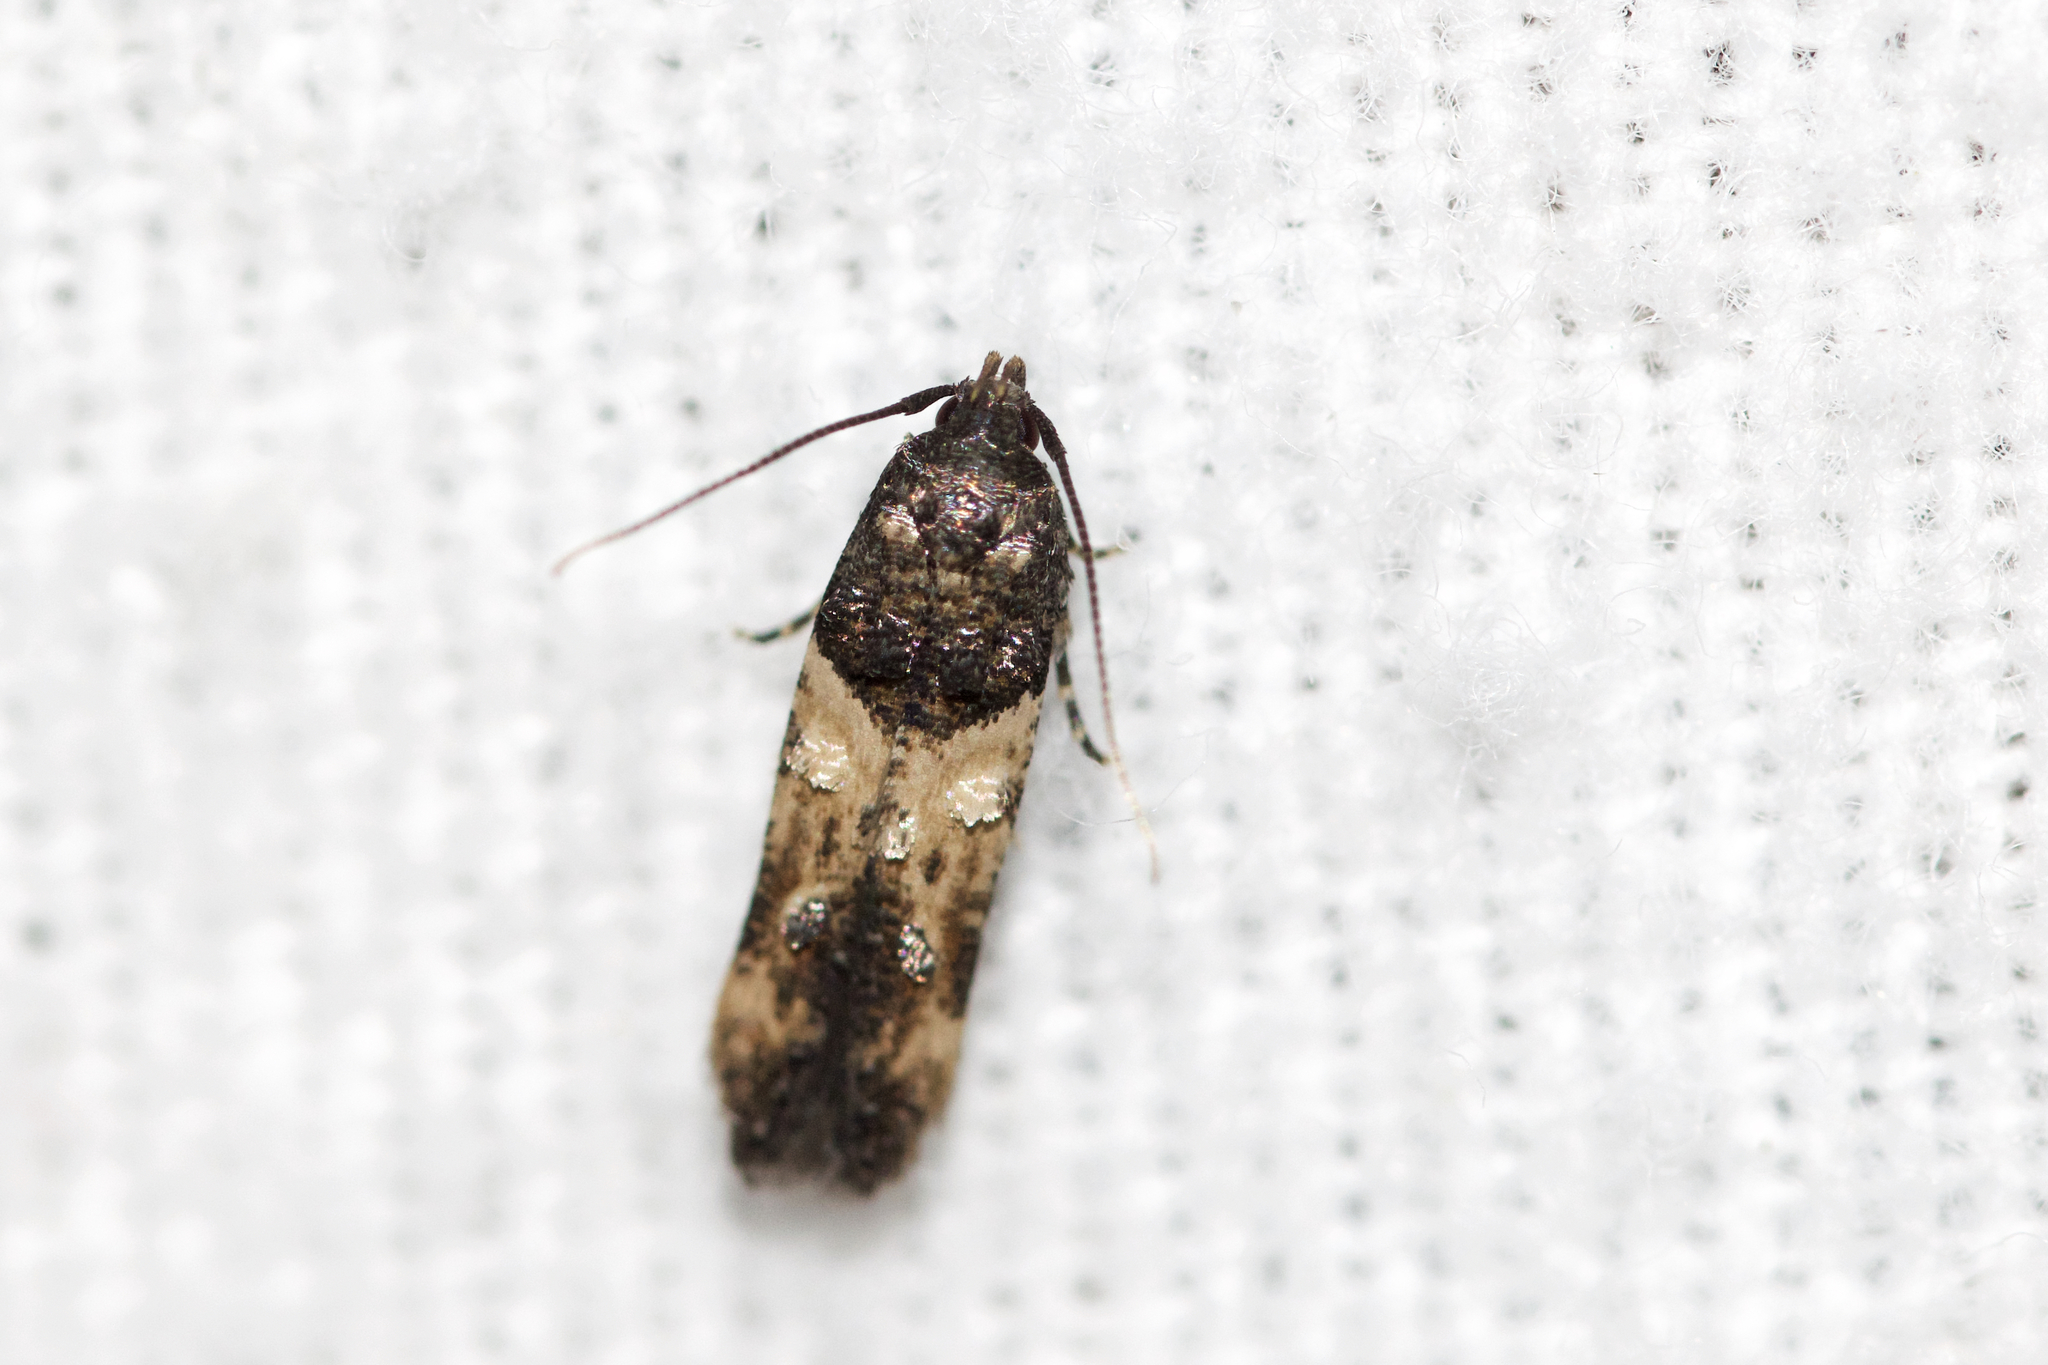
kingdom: Animalia
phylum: Arthropoda
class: Insecta
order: Lepidoptera
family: Cosmopterigidae
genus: Walshia
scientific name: Walshia miscecolorella
